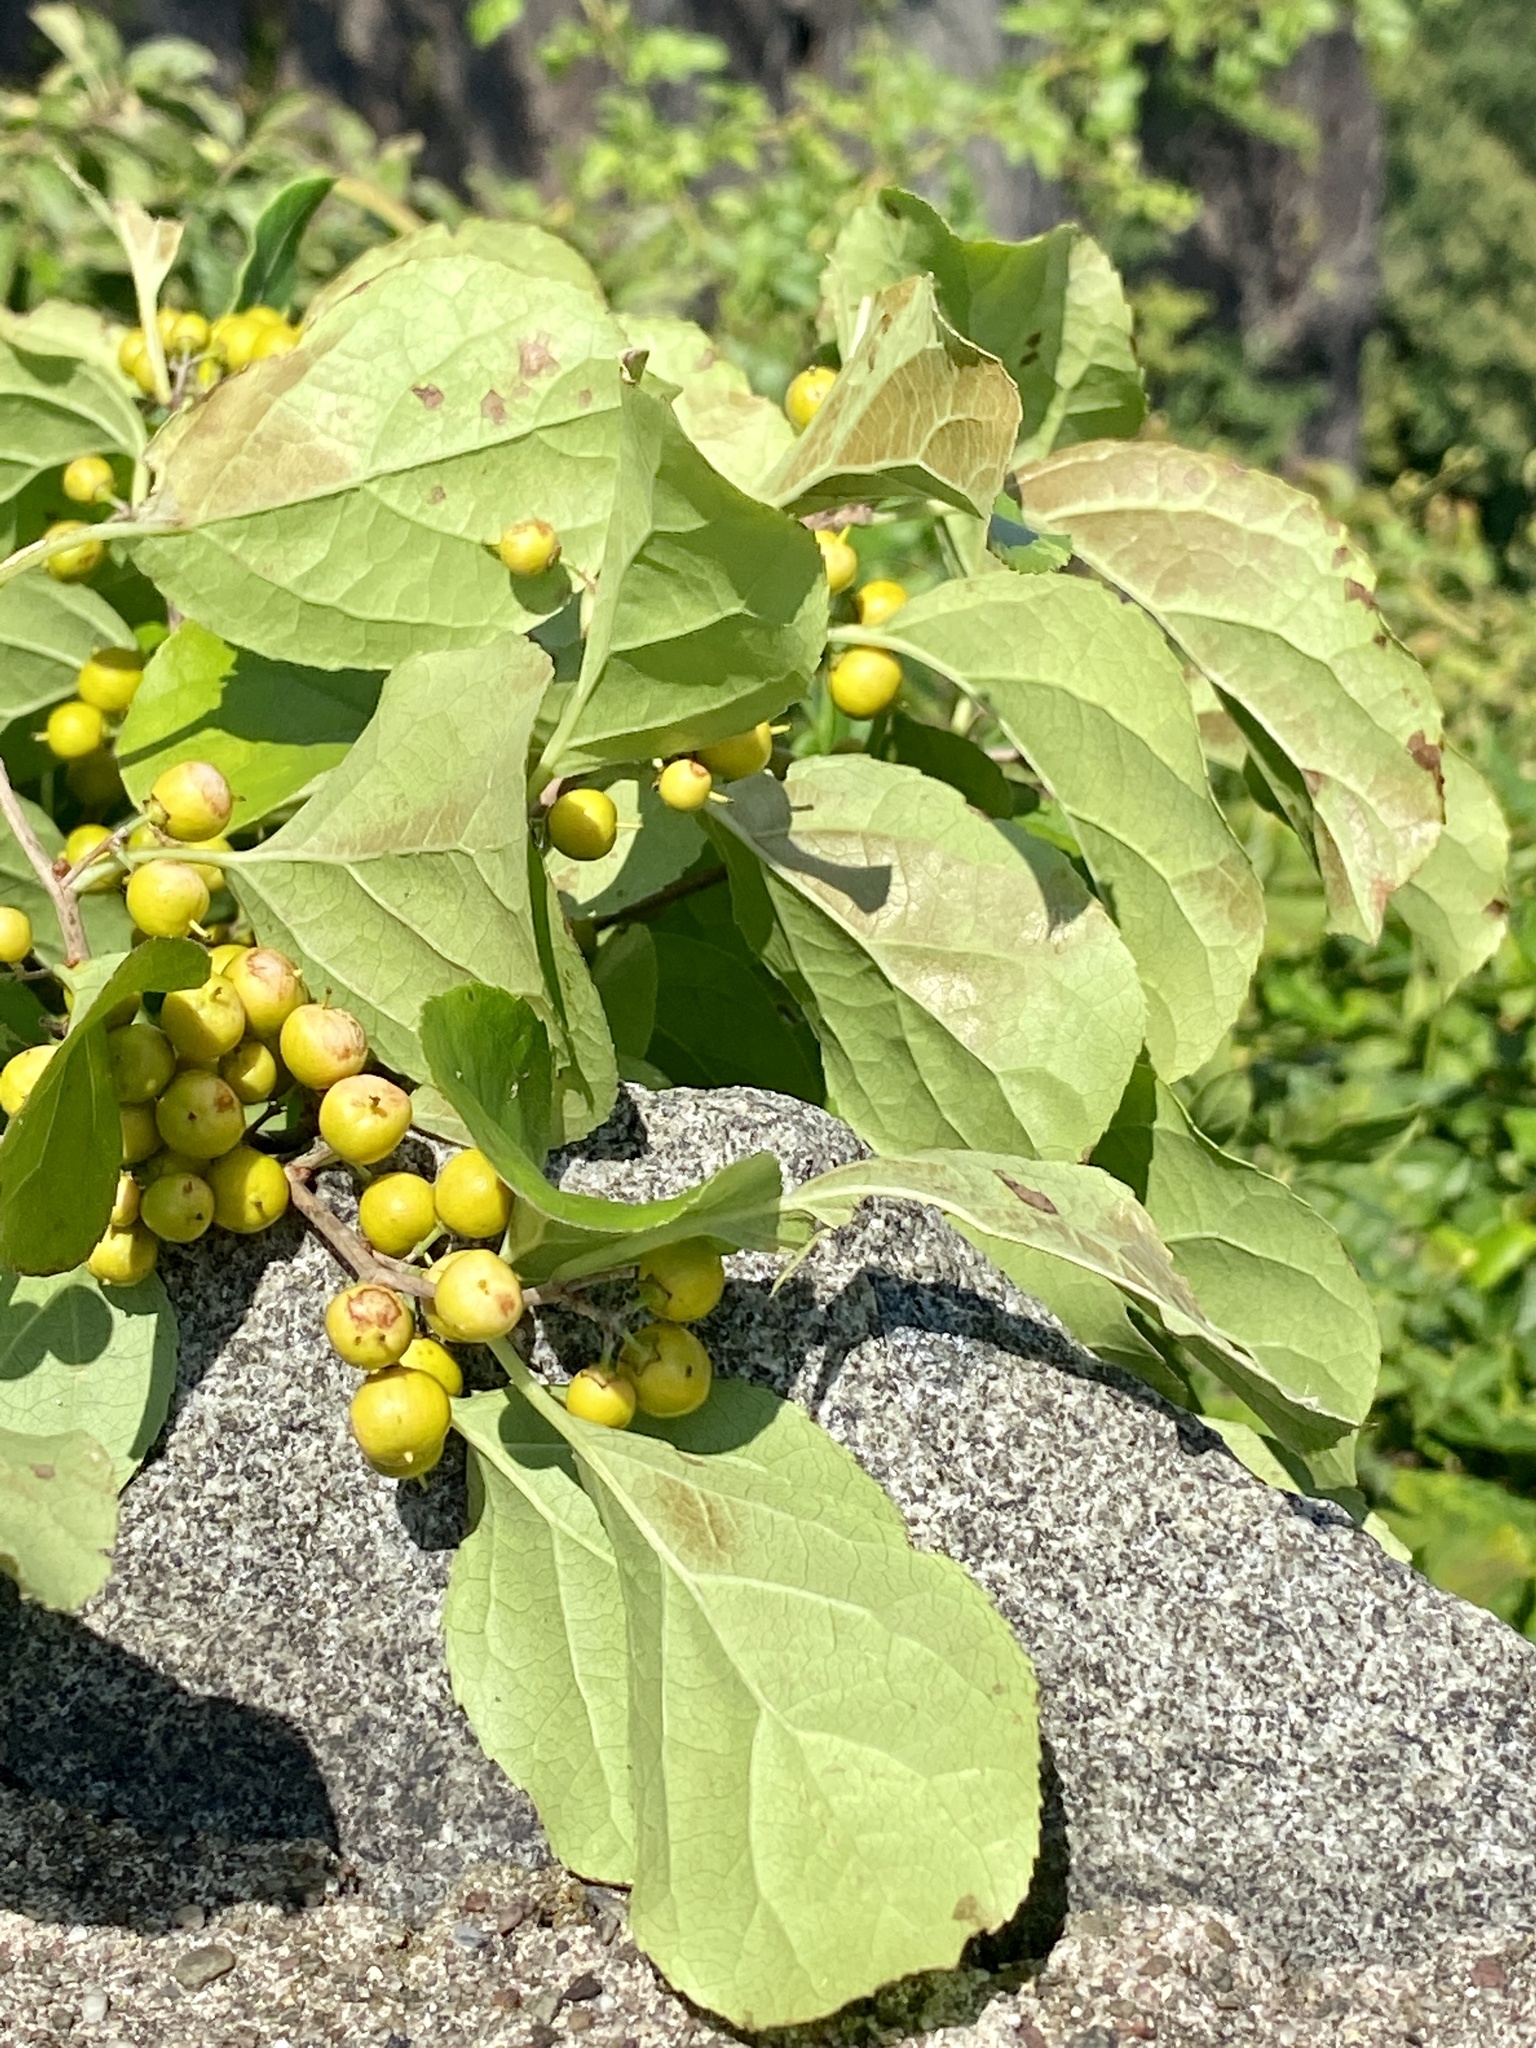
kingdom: Plantae
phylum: Tracheophyta
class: Magnoliopsida
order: Celastrales
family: Celastraceae
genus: Celastrus
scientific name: Celastrus orbiculatus
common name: Oriental bittersweet
